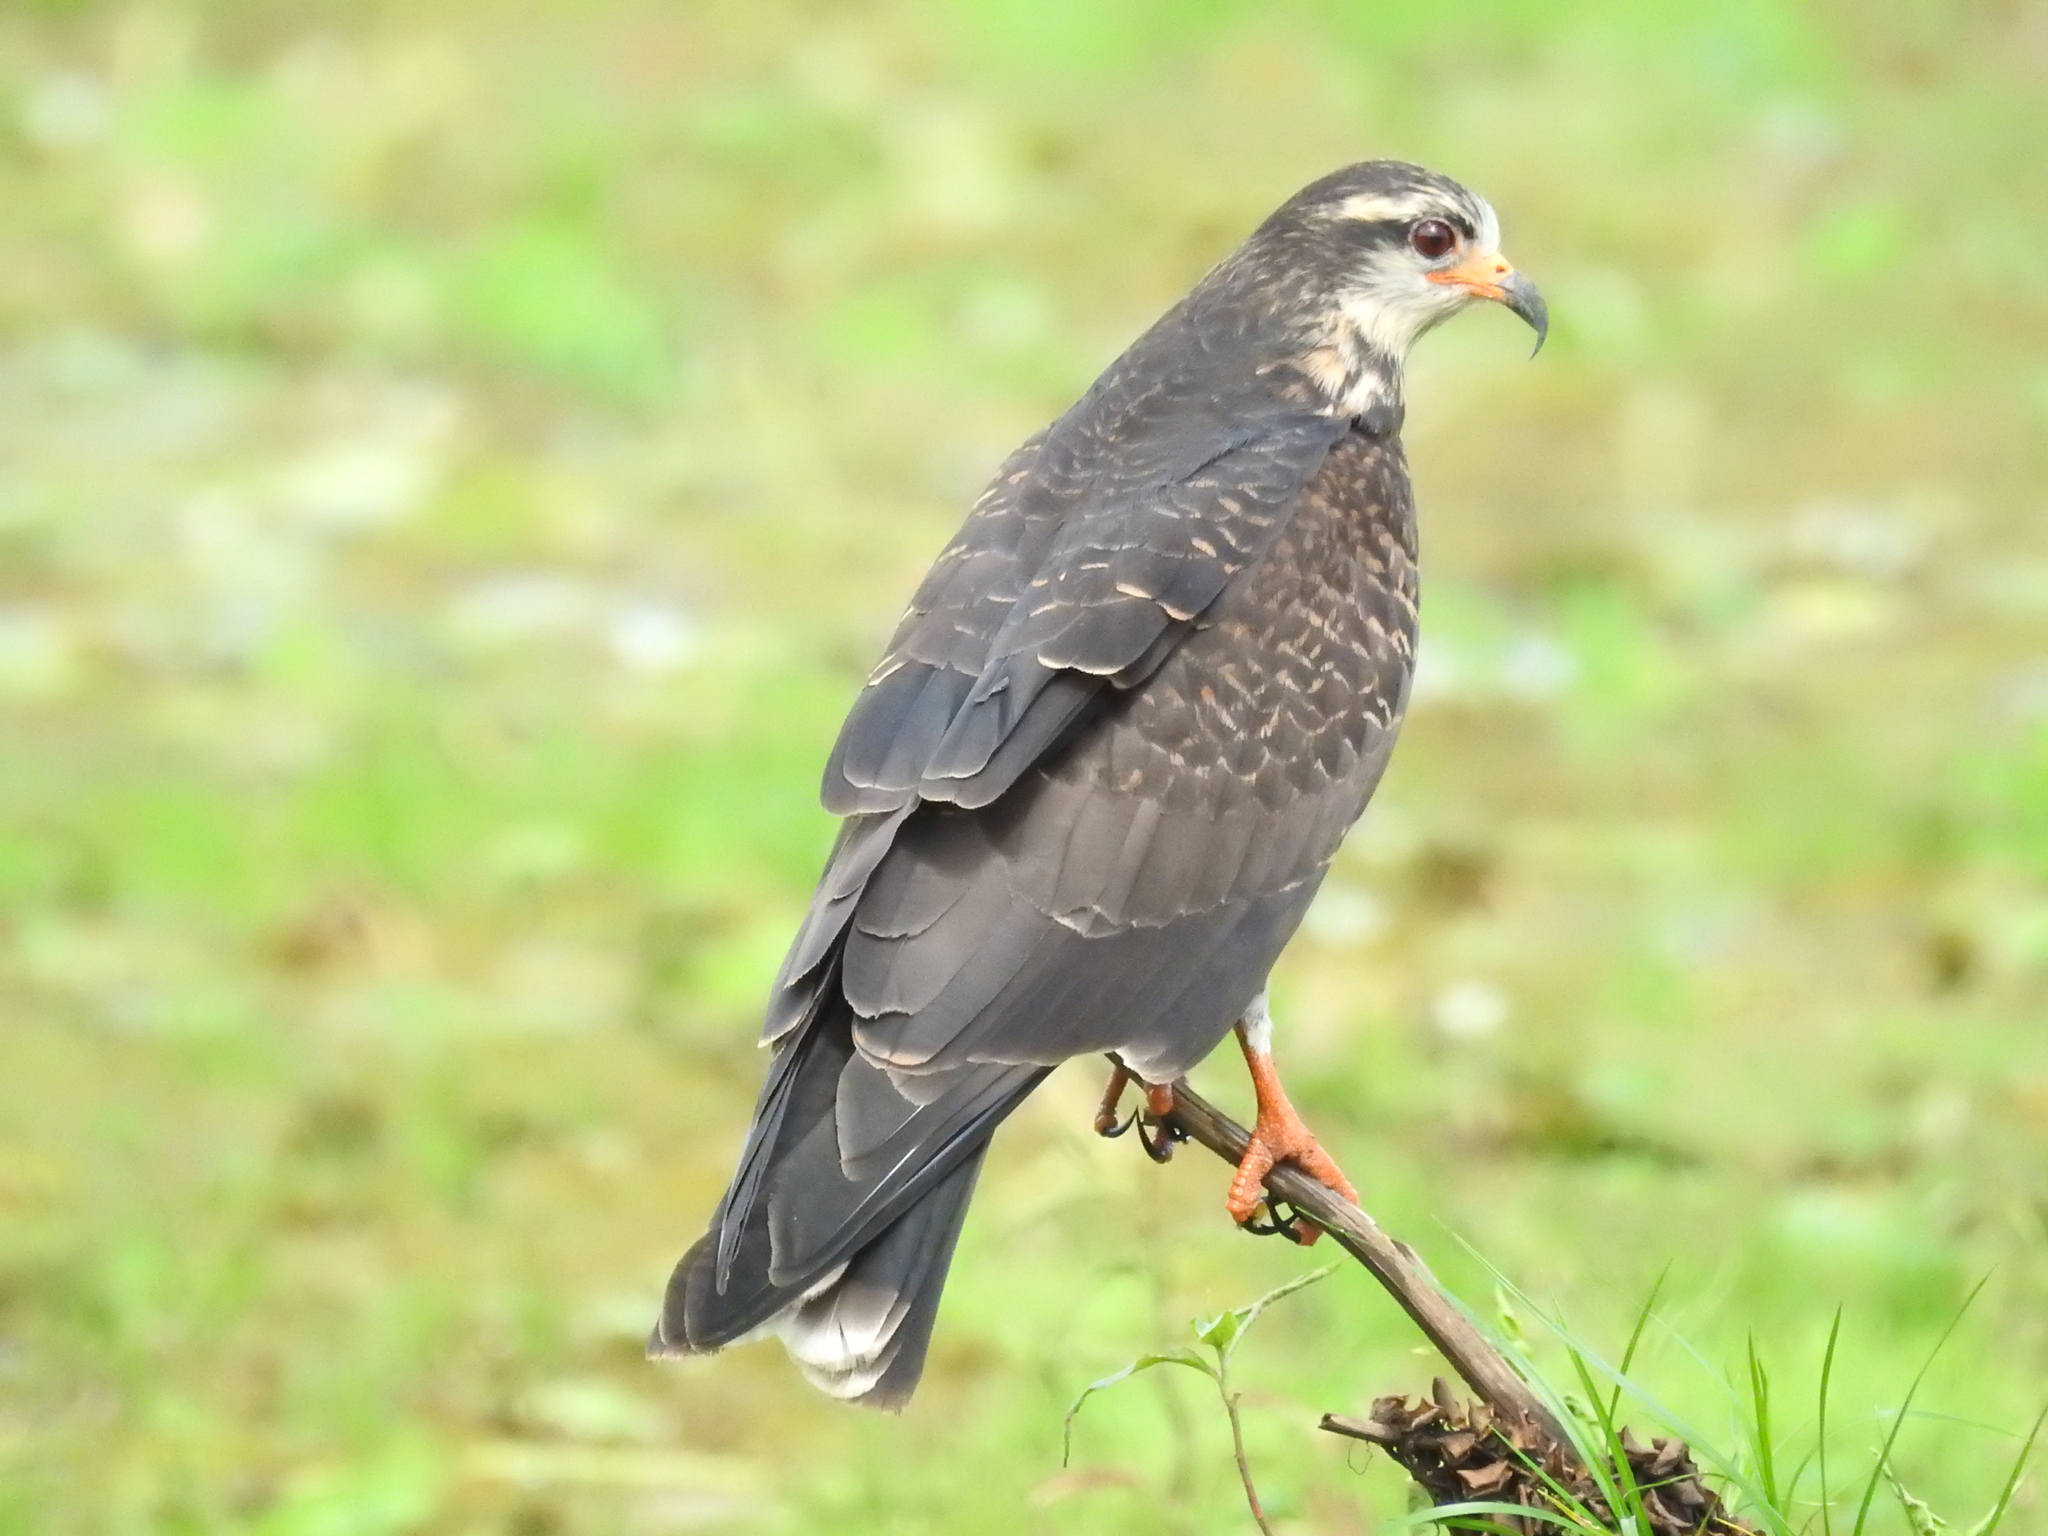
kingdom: Animalia
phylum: Chordata
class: Aves
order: Accipitriformes
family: Accipitridae
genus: Rostrhamus
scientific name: Rostrhamus sociabilis
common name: Snail kite
